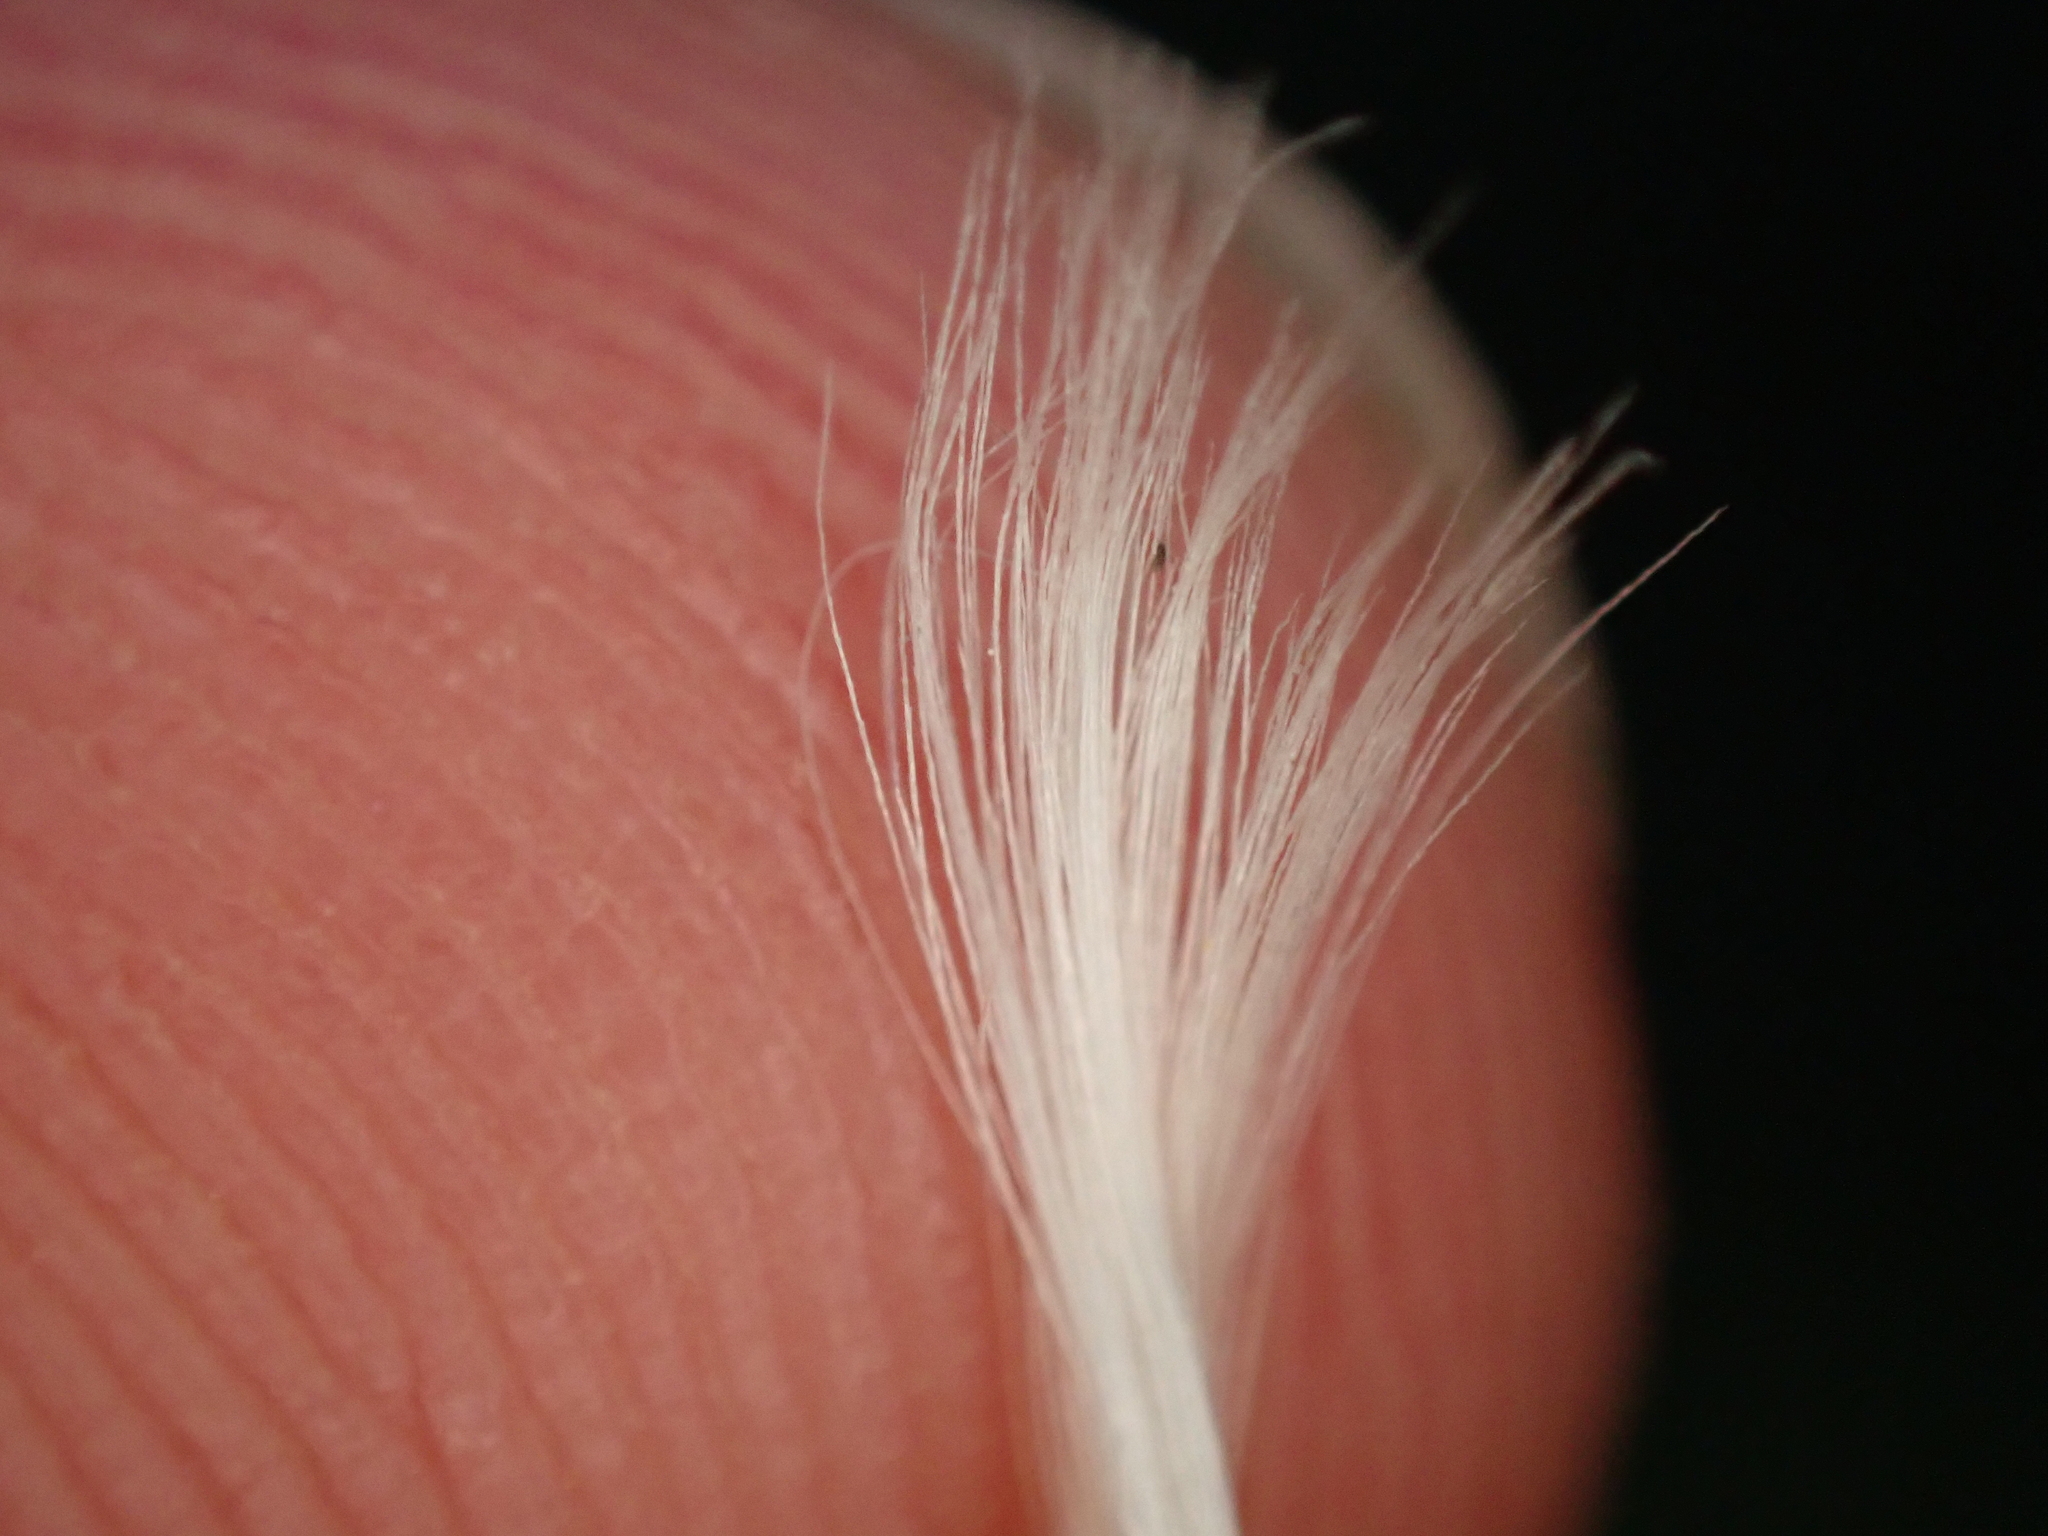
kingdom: Plantae
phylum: Tracheophyta
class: Magnoliopsida
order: Asterales
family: Asteraceae
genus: Crepis
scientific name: Crepis pyrenaica
